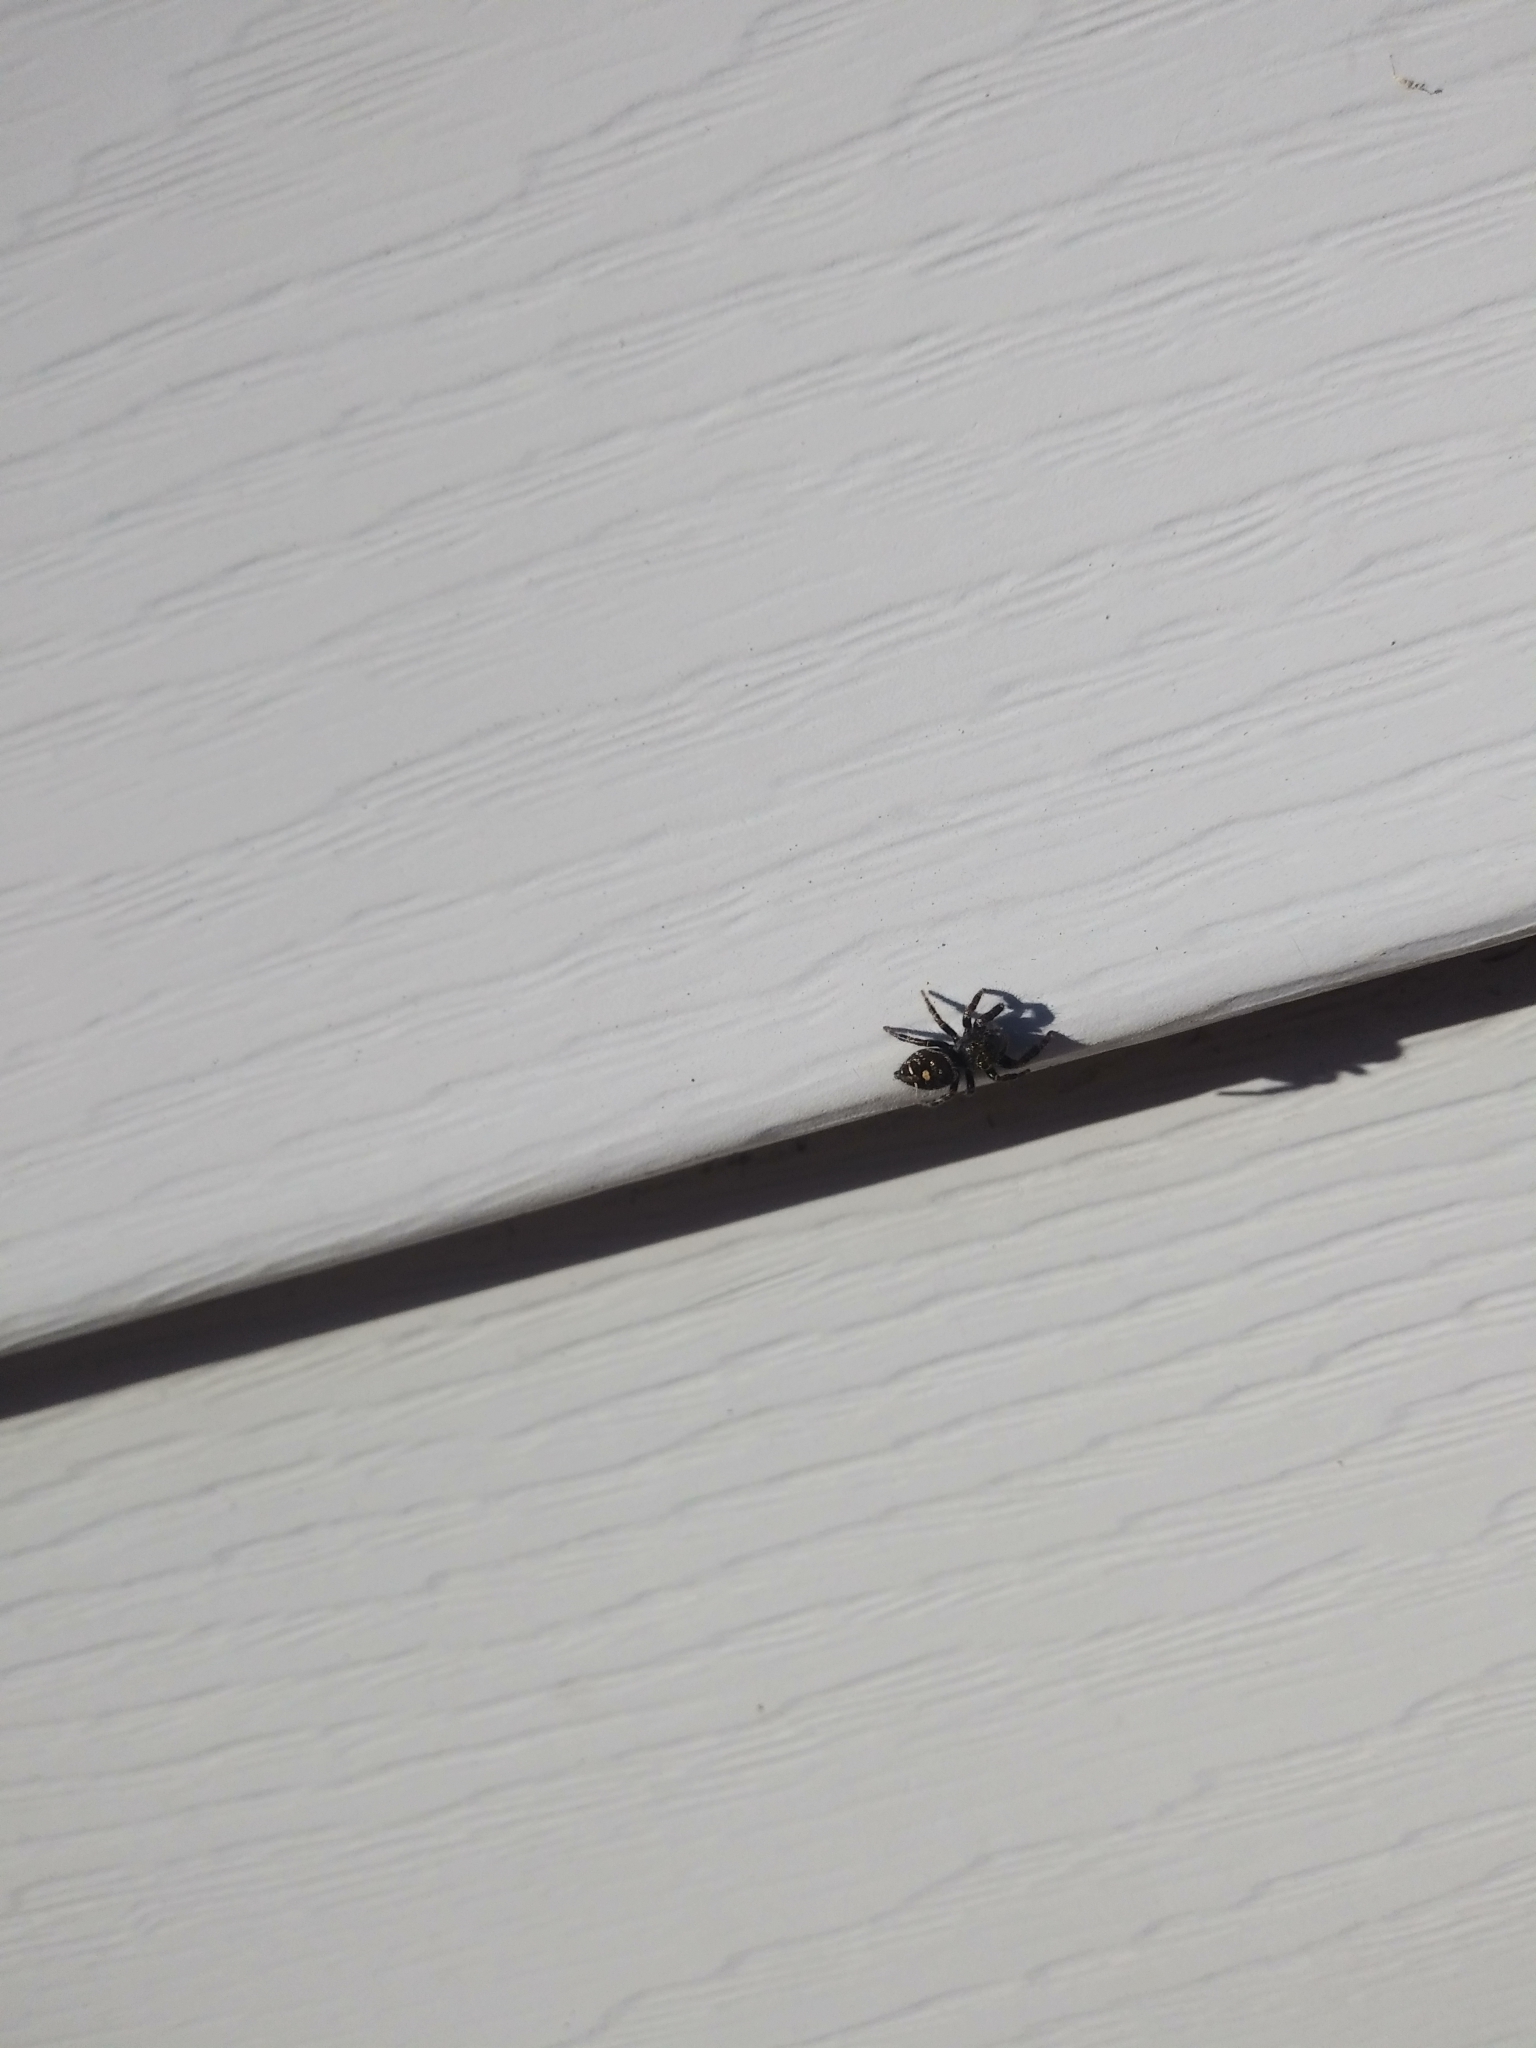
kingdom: Animalia
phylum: Arthropoda
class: Arachnida
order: Araneae
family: Salticidae
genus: Phidippus
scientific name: Phidippus audax
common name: Bold jumper
